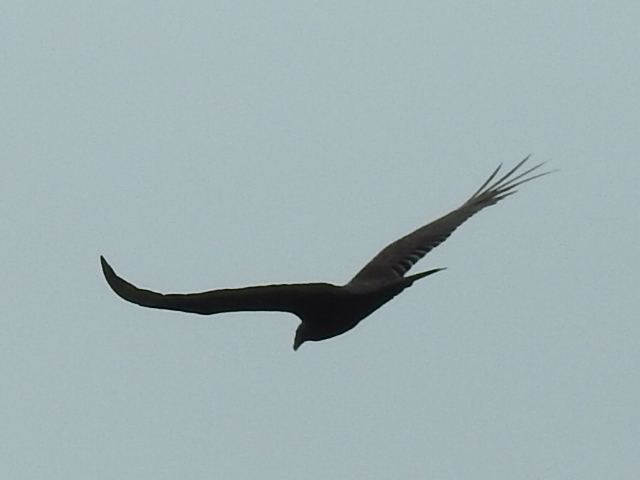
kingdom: Animalia
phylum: Chordata
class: Aves
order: Accipitriformes
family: Cathartidae
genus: Cathartes
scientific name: Cathartes aura
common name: Turkey vulture
